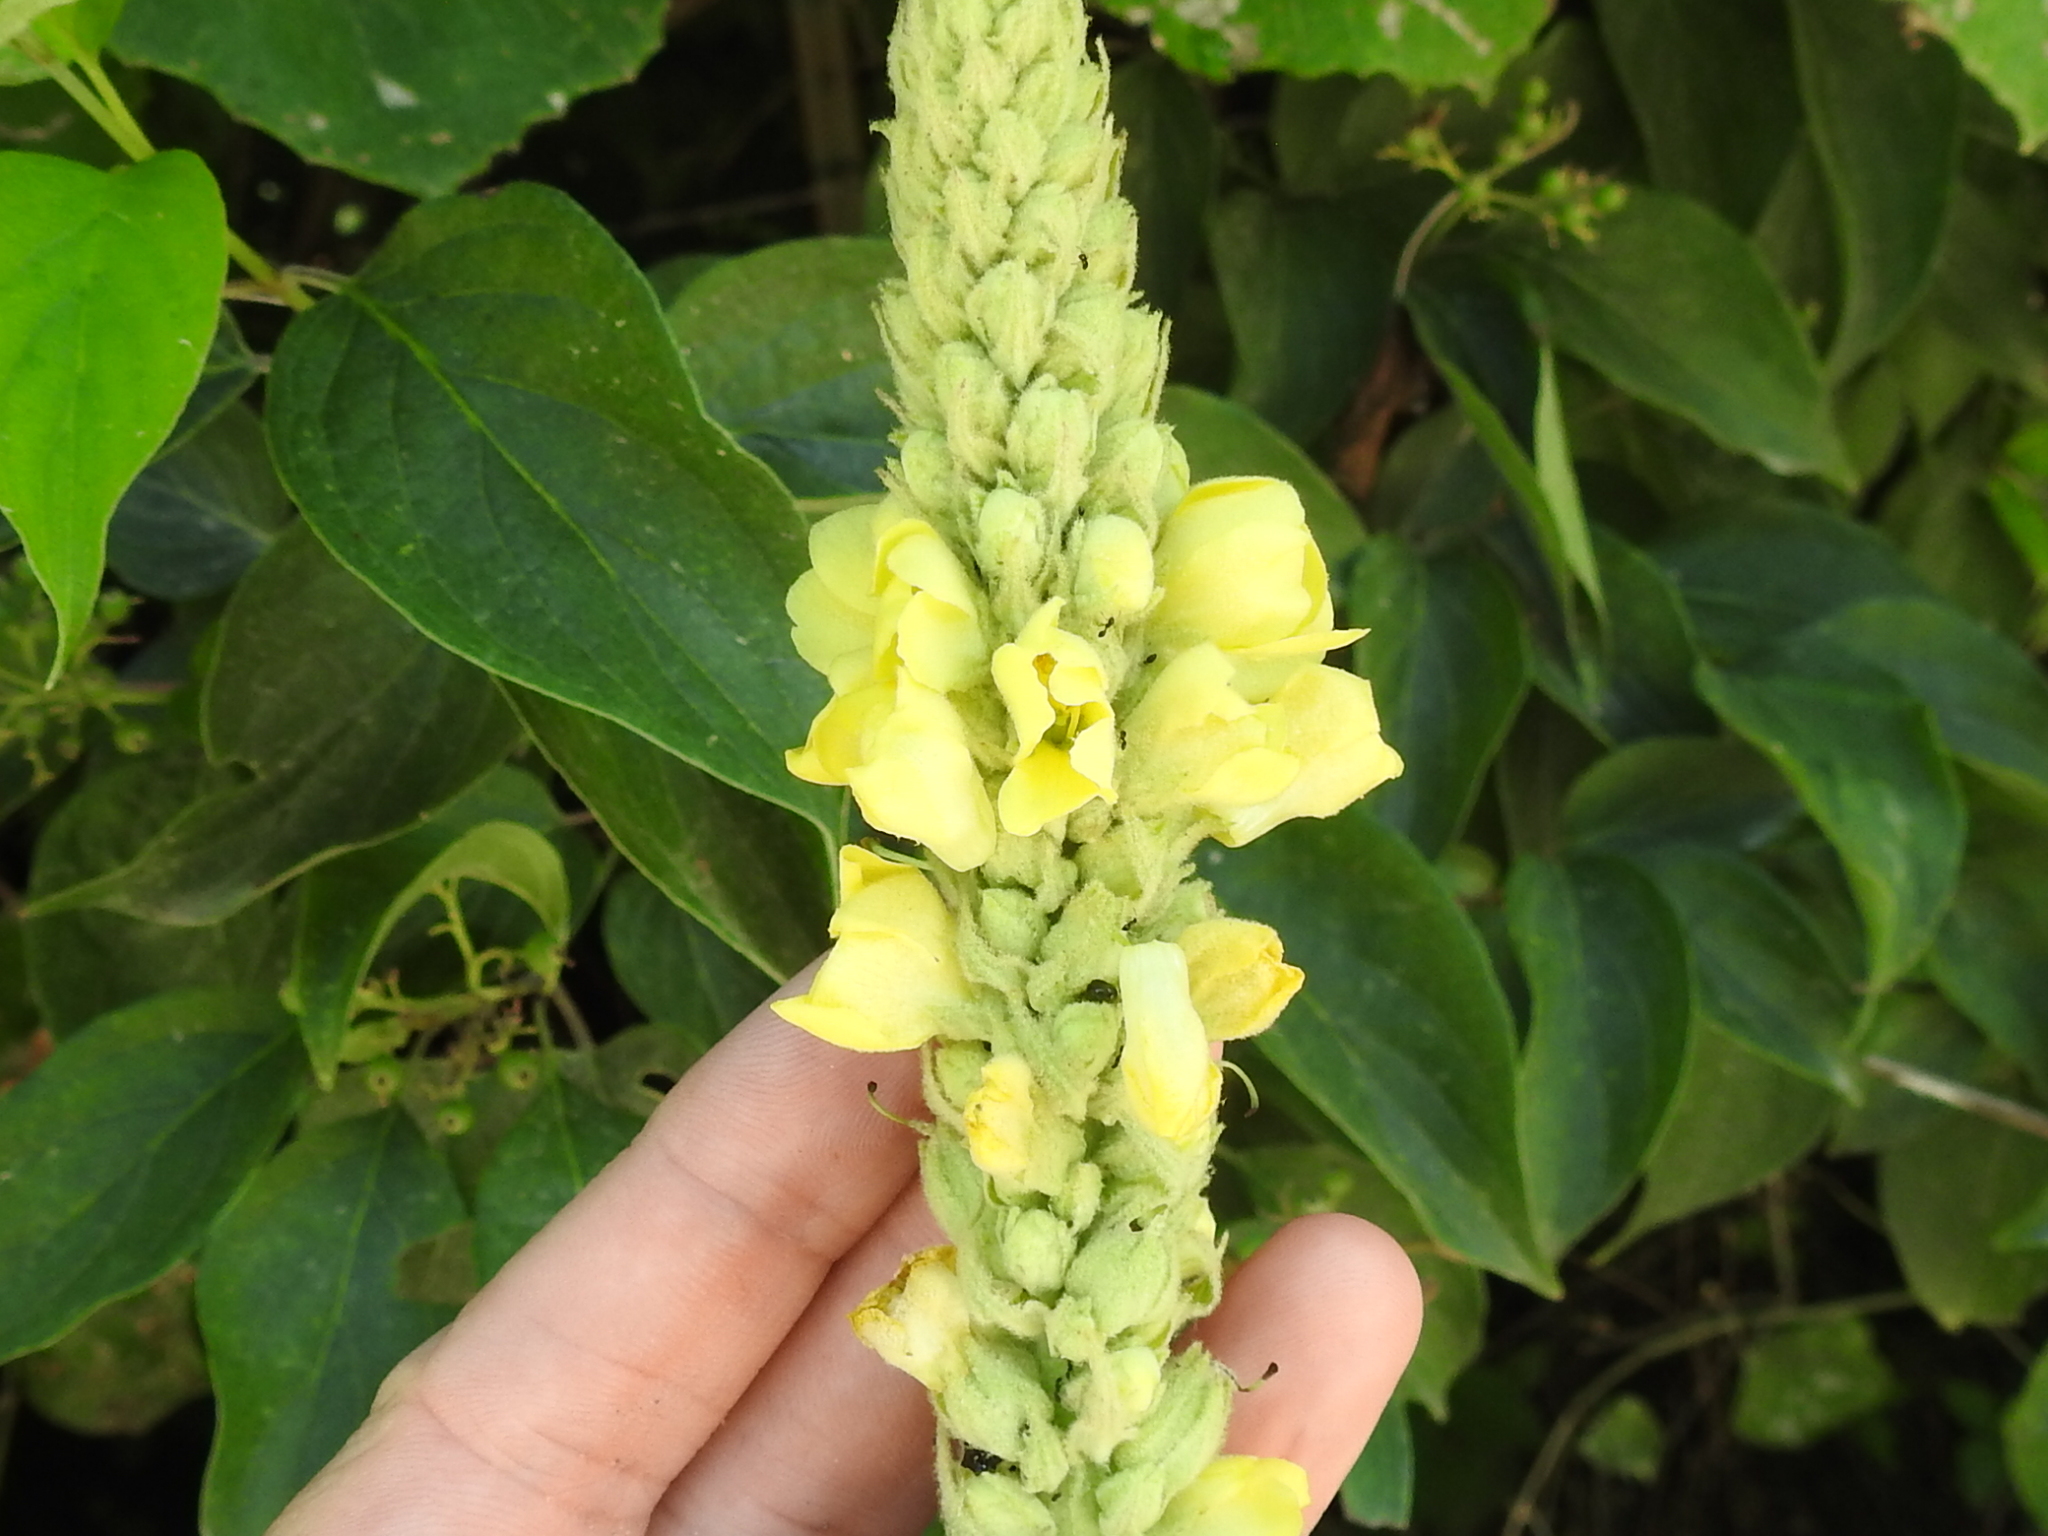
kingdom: Plantae
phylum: Tracheophyta
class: Magnoliopsida
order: Lamiales
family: Scrophulariaceae
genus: Verbascum
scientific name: Verbascum thapsus
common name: Common mullein
